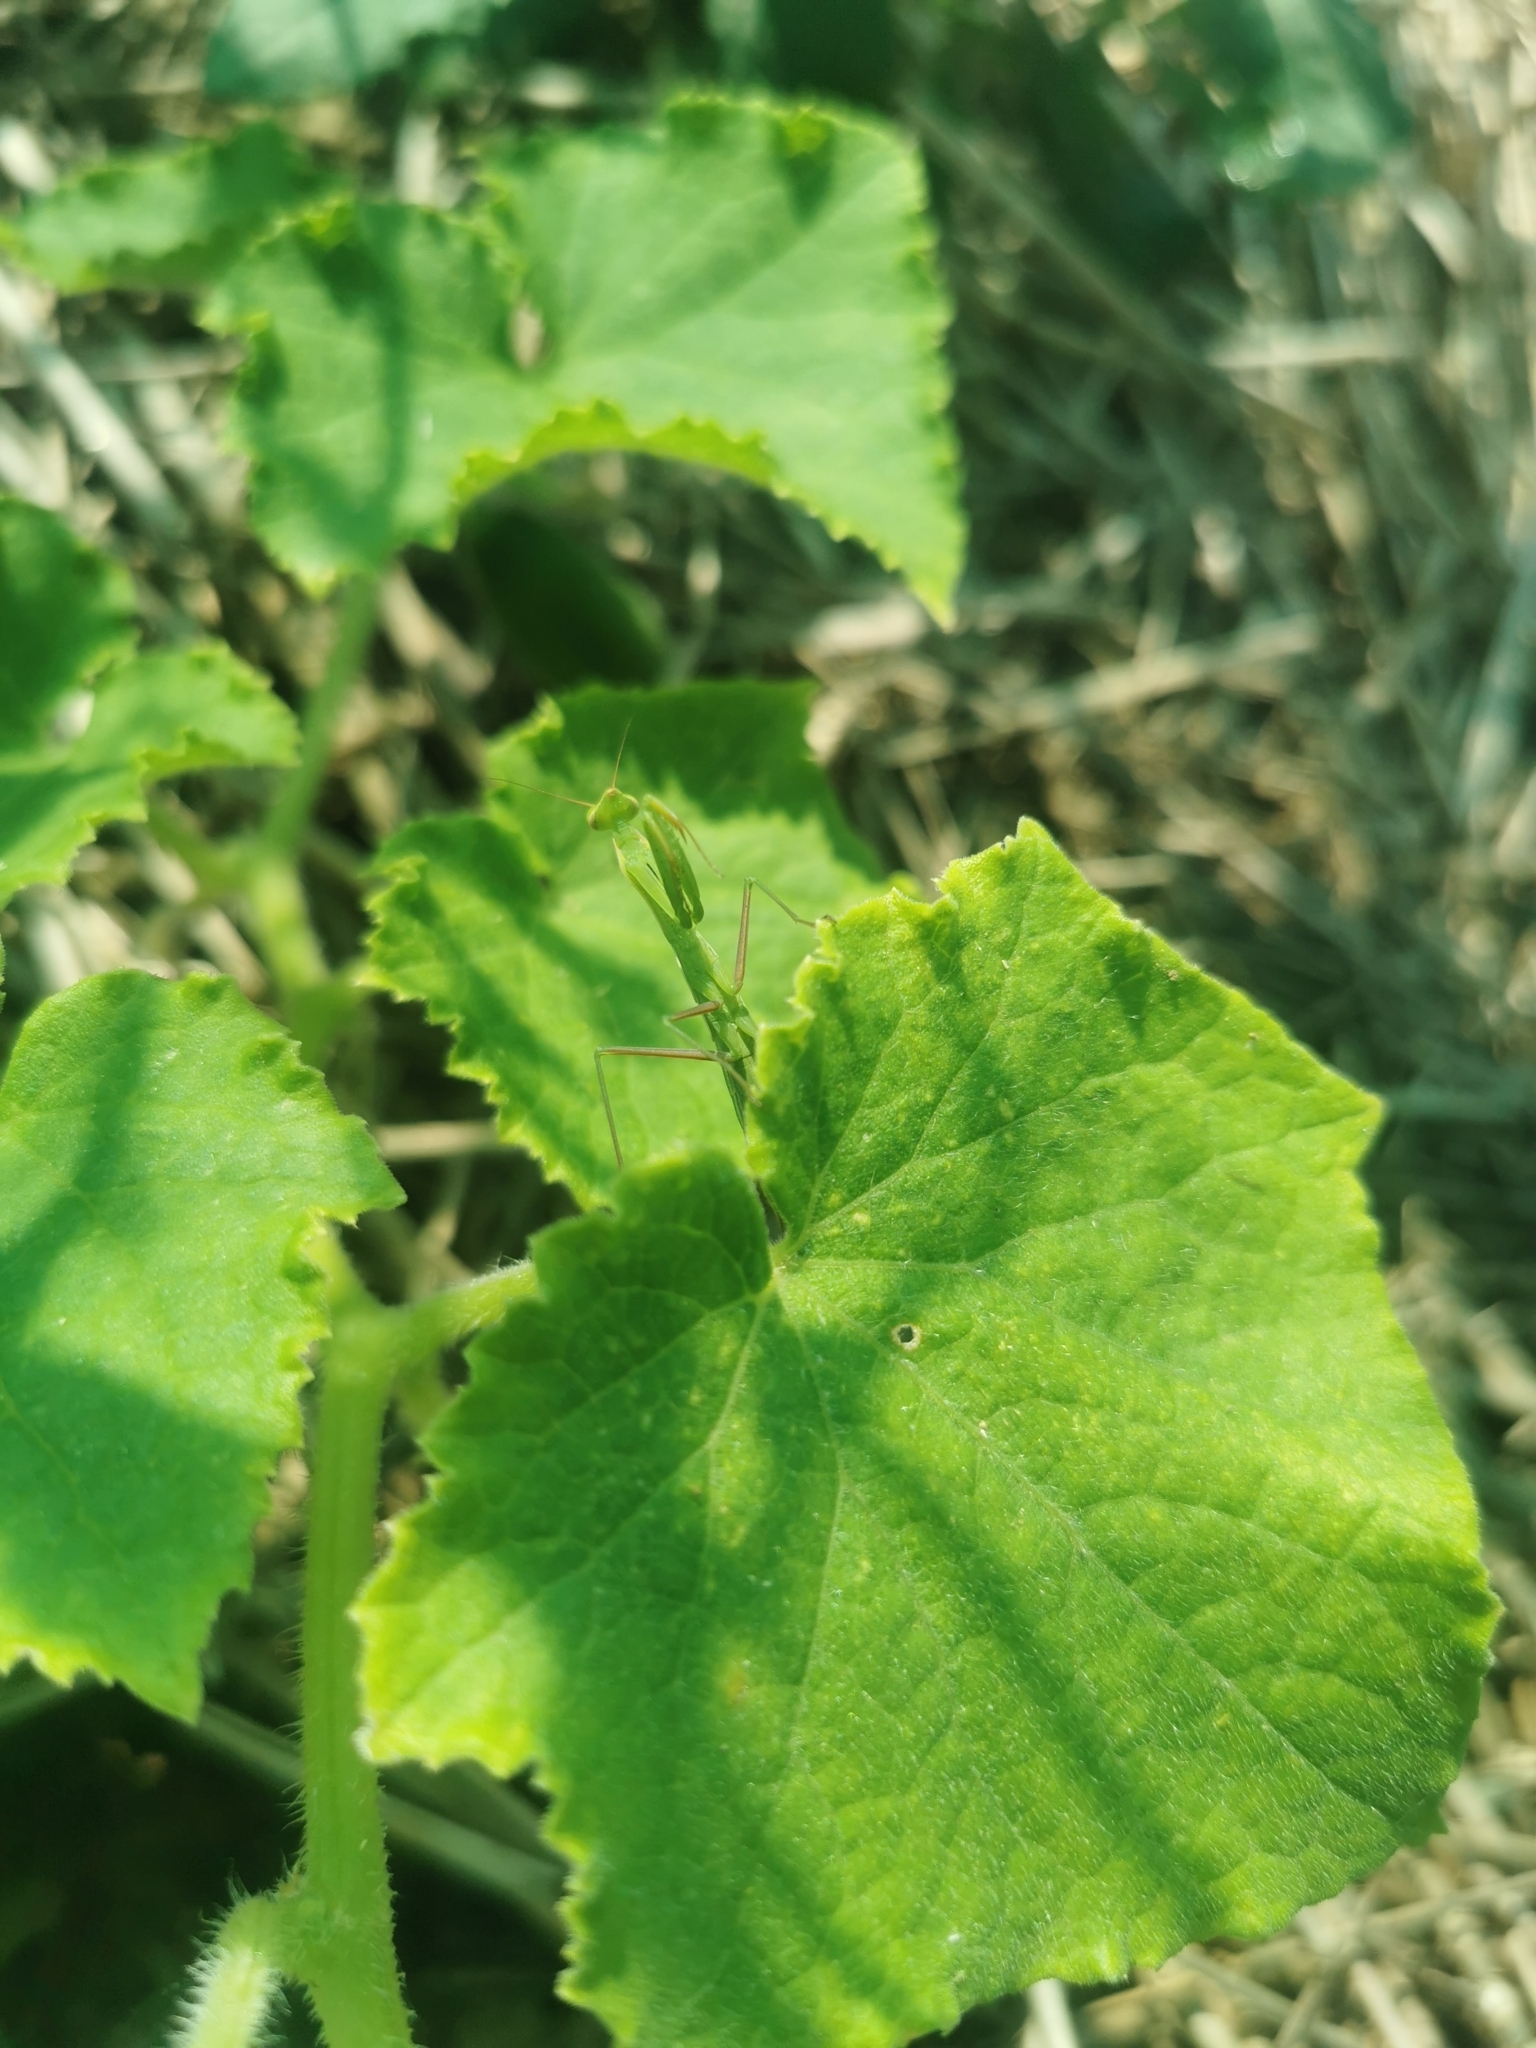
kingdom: Animalia
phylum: Arthropoda
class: Insecta
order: Mantodea
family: Mantidae
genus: Mantis
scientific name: Mantis religiosa
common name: Praying mantis
